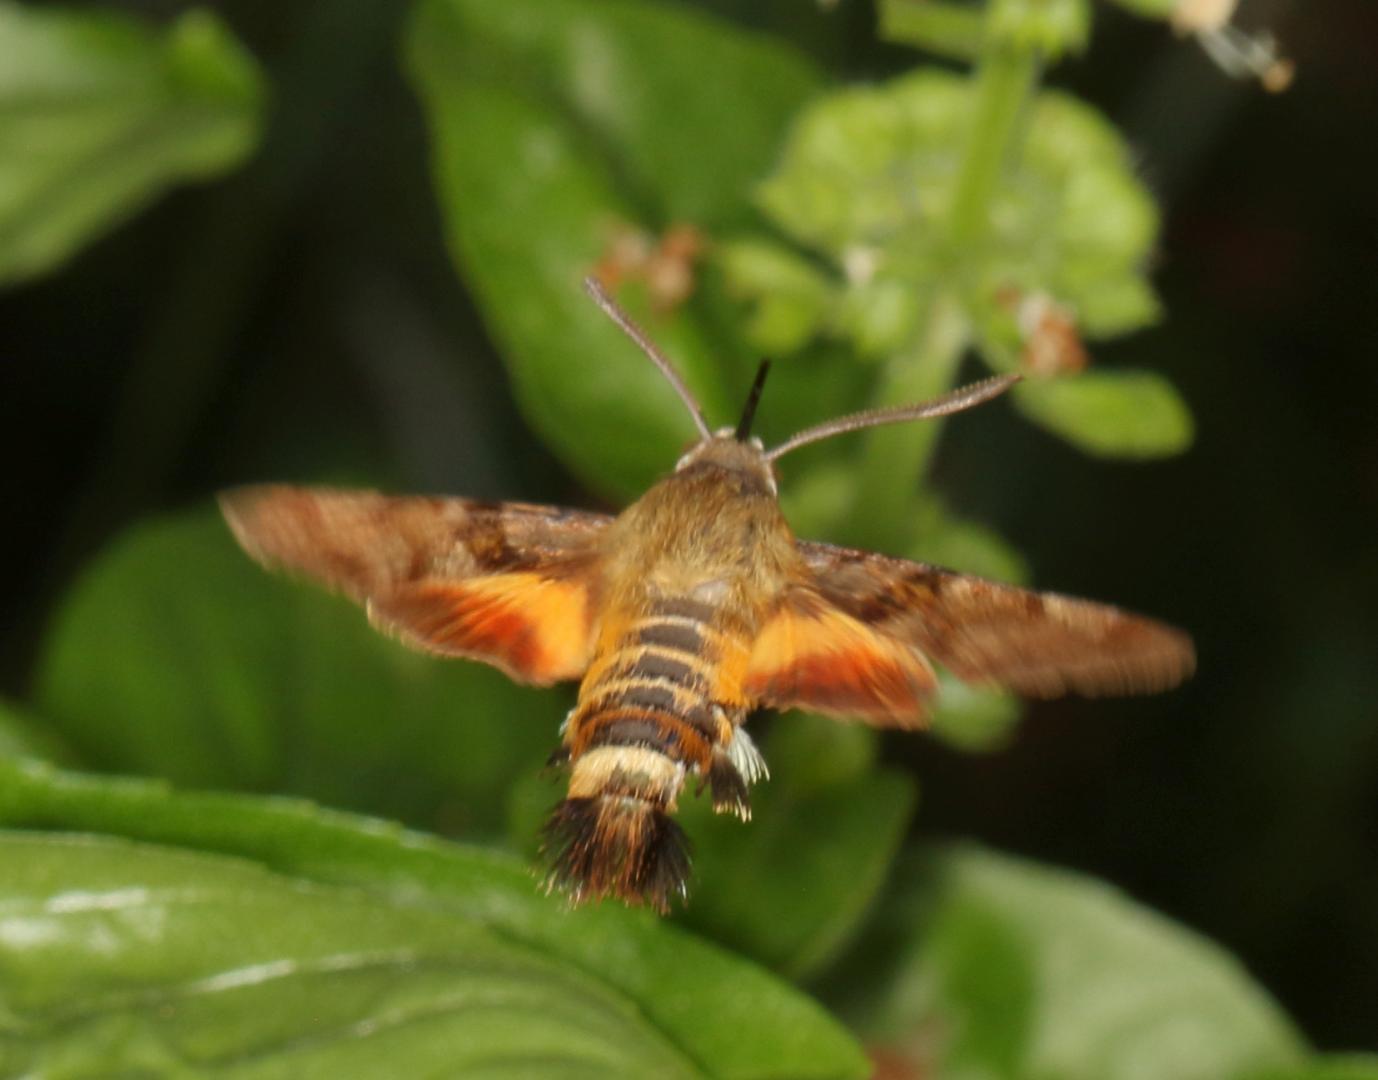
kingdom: Animalia
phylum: Arthropoda
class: Insecta
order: Lepidoptera
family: Sphingidae
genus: Macroglossum
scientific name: Macroglossum trochilus
